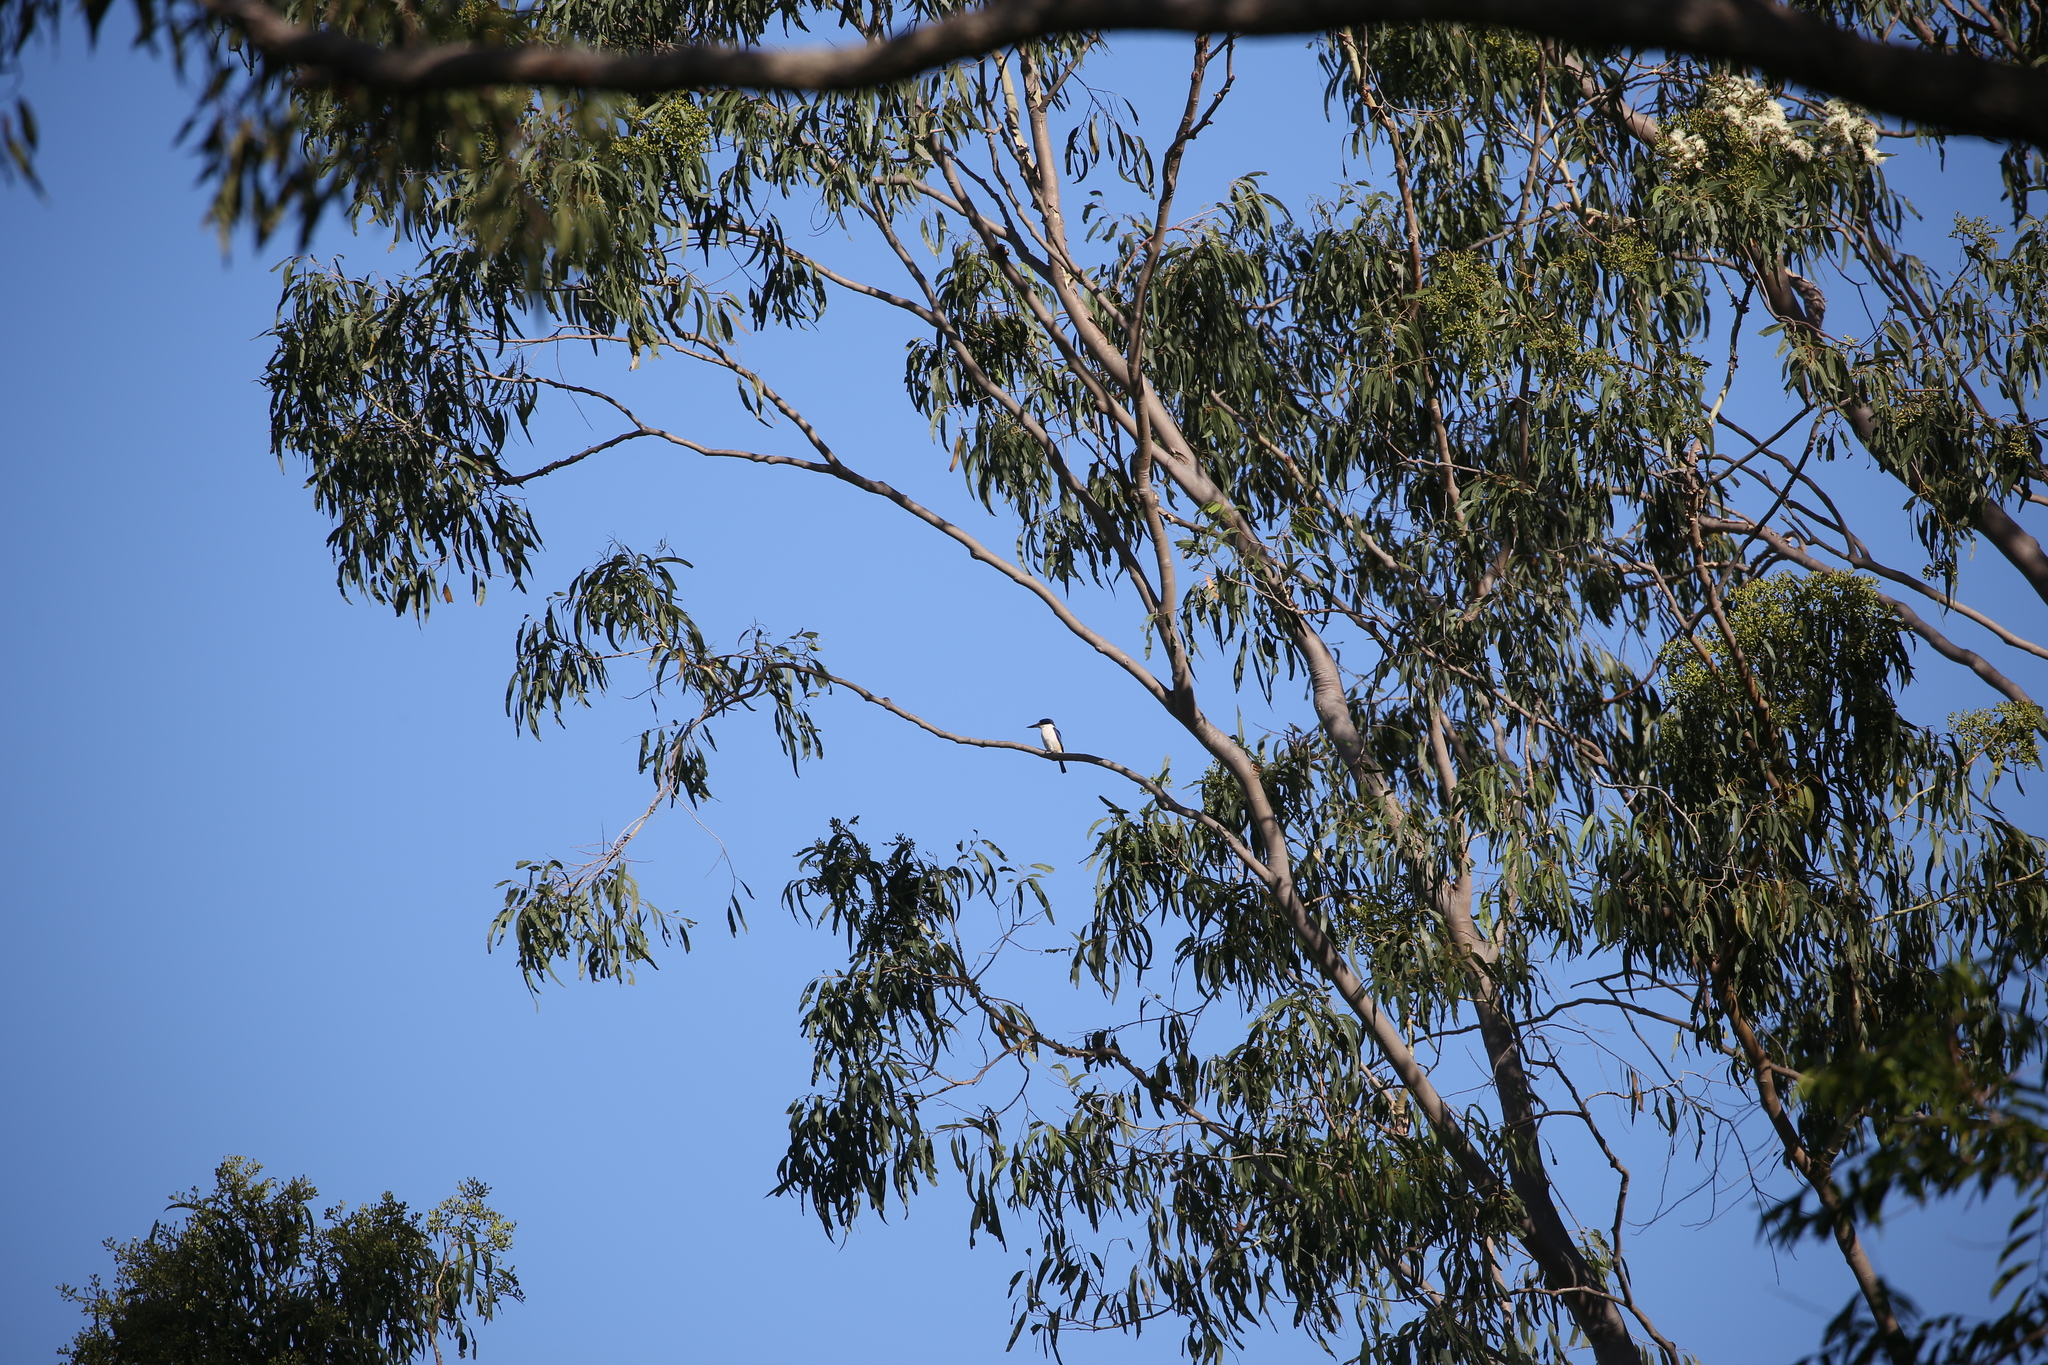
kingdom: Animalia
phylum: Chordata
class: Aves
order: Coraciiformes
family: Alcedinidae
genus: Todiramphus
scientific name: Todiramphus macleayii
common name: Forest kingfisher
